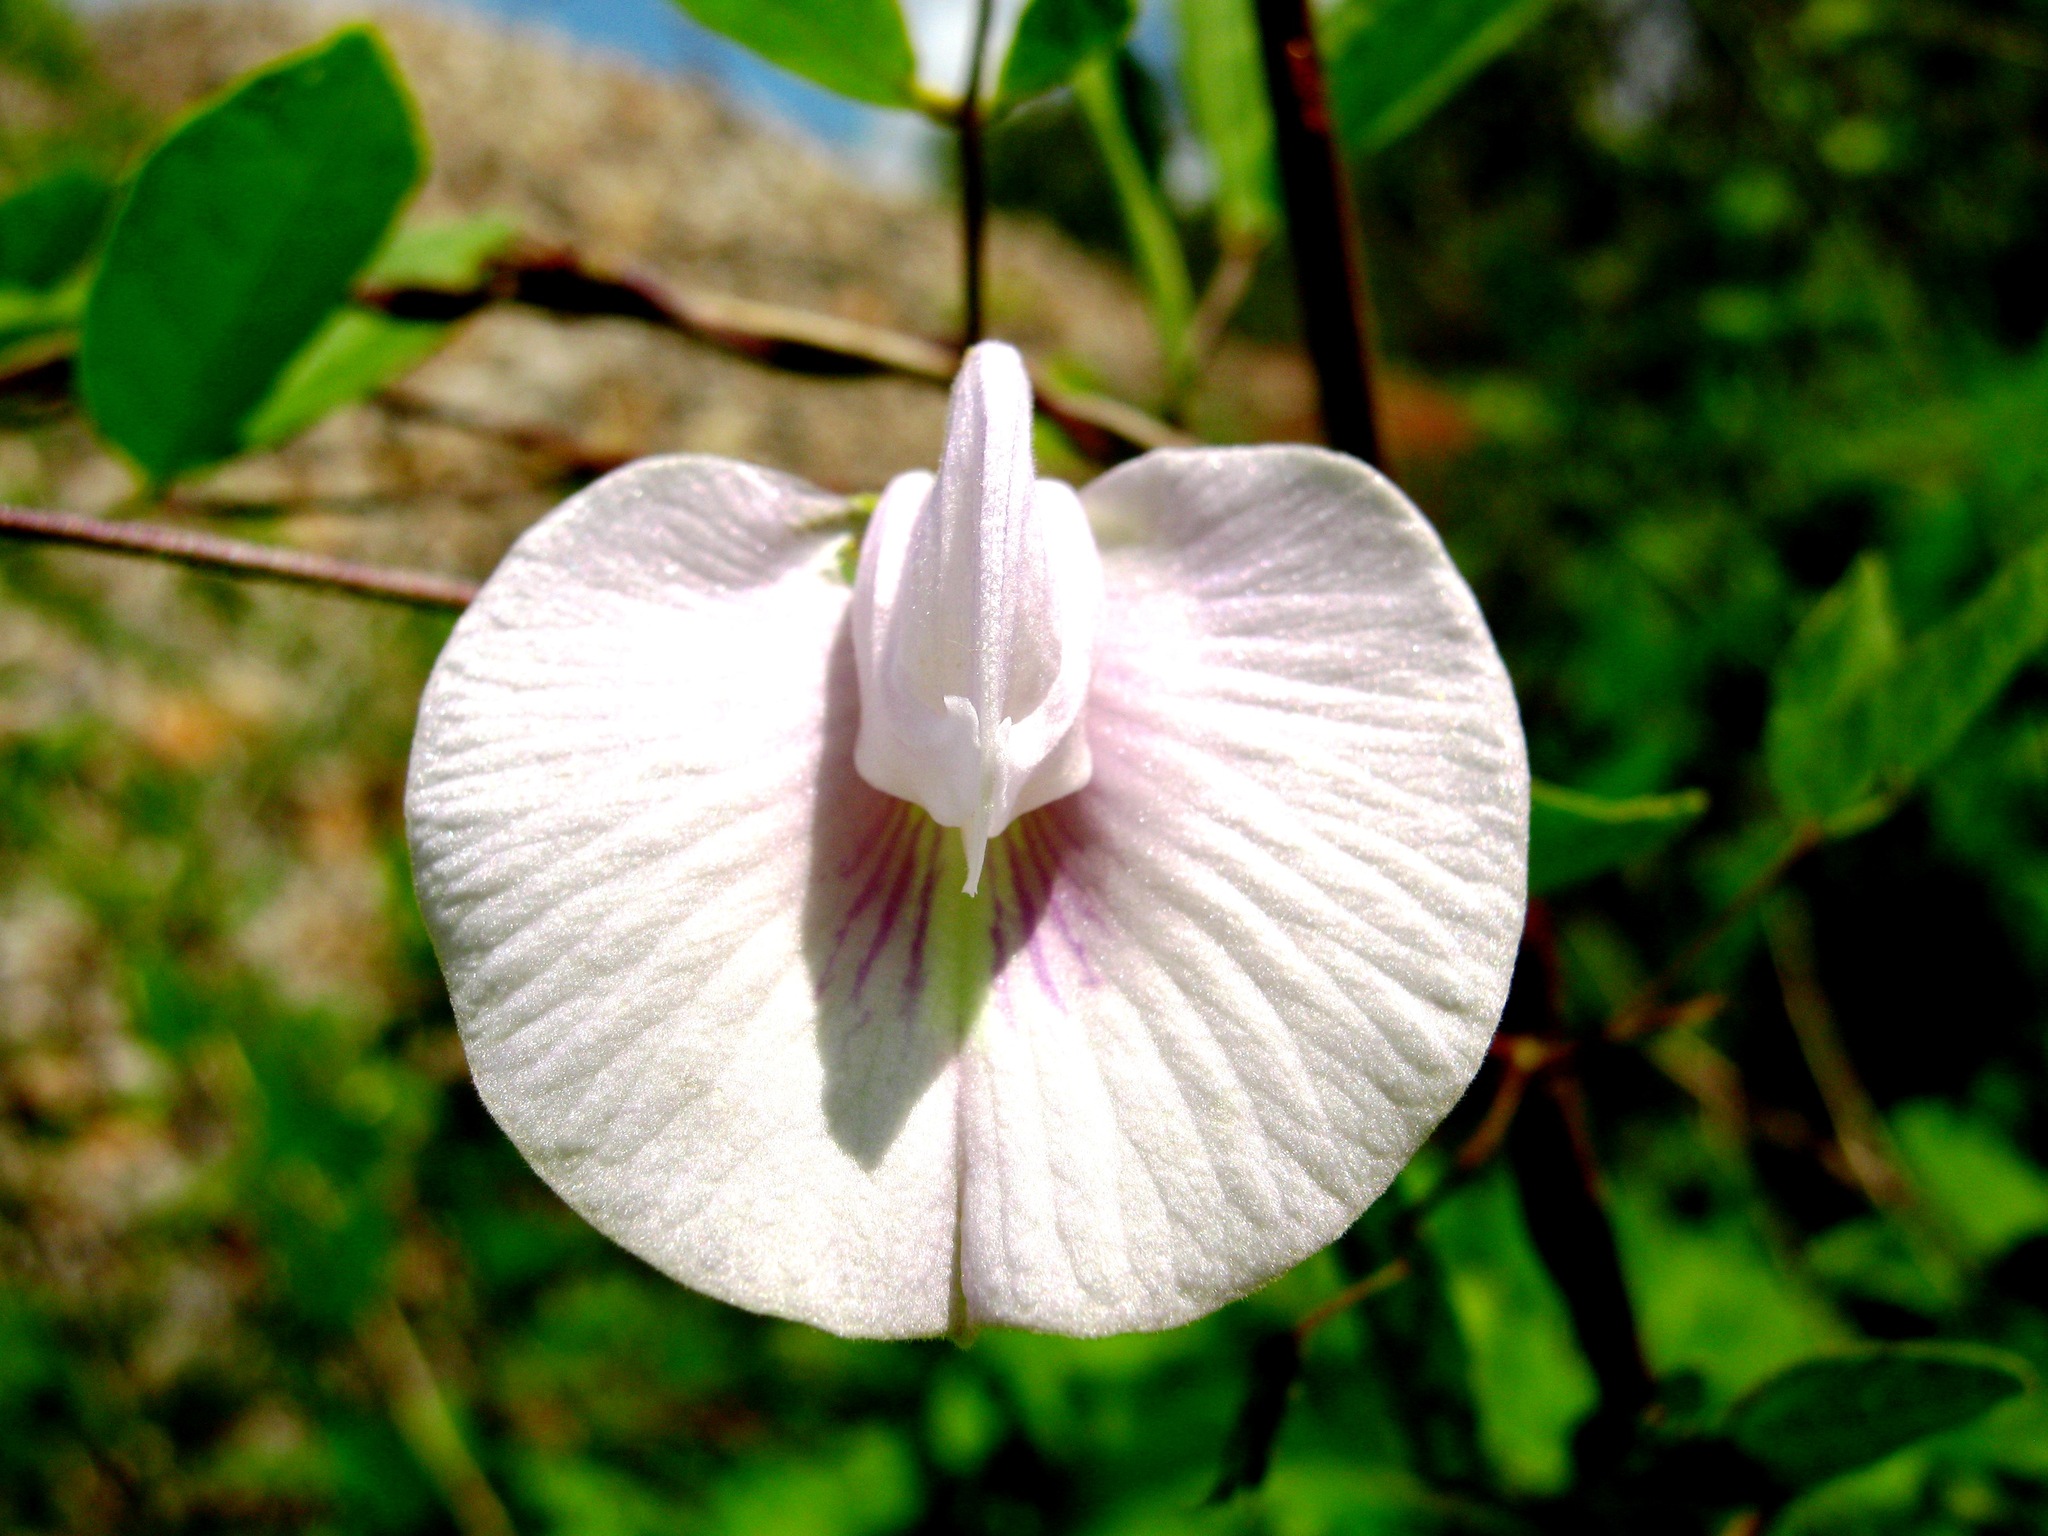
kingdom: Plantae
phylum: Tracheophyta
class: Magnoliopsida
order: Fabales
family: Fabaceae
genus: Centrosema
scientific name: Centrosema molle
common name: Soft butterfly pea
